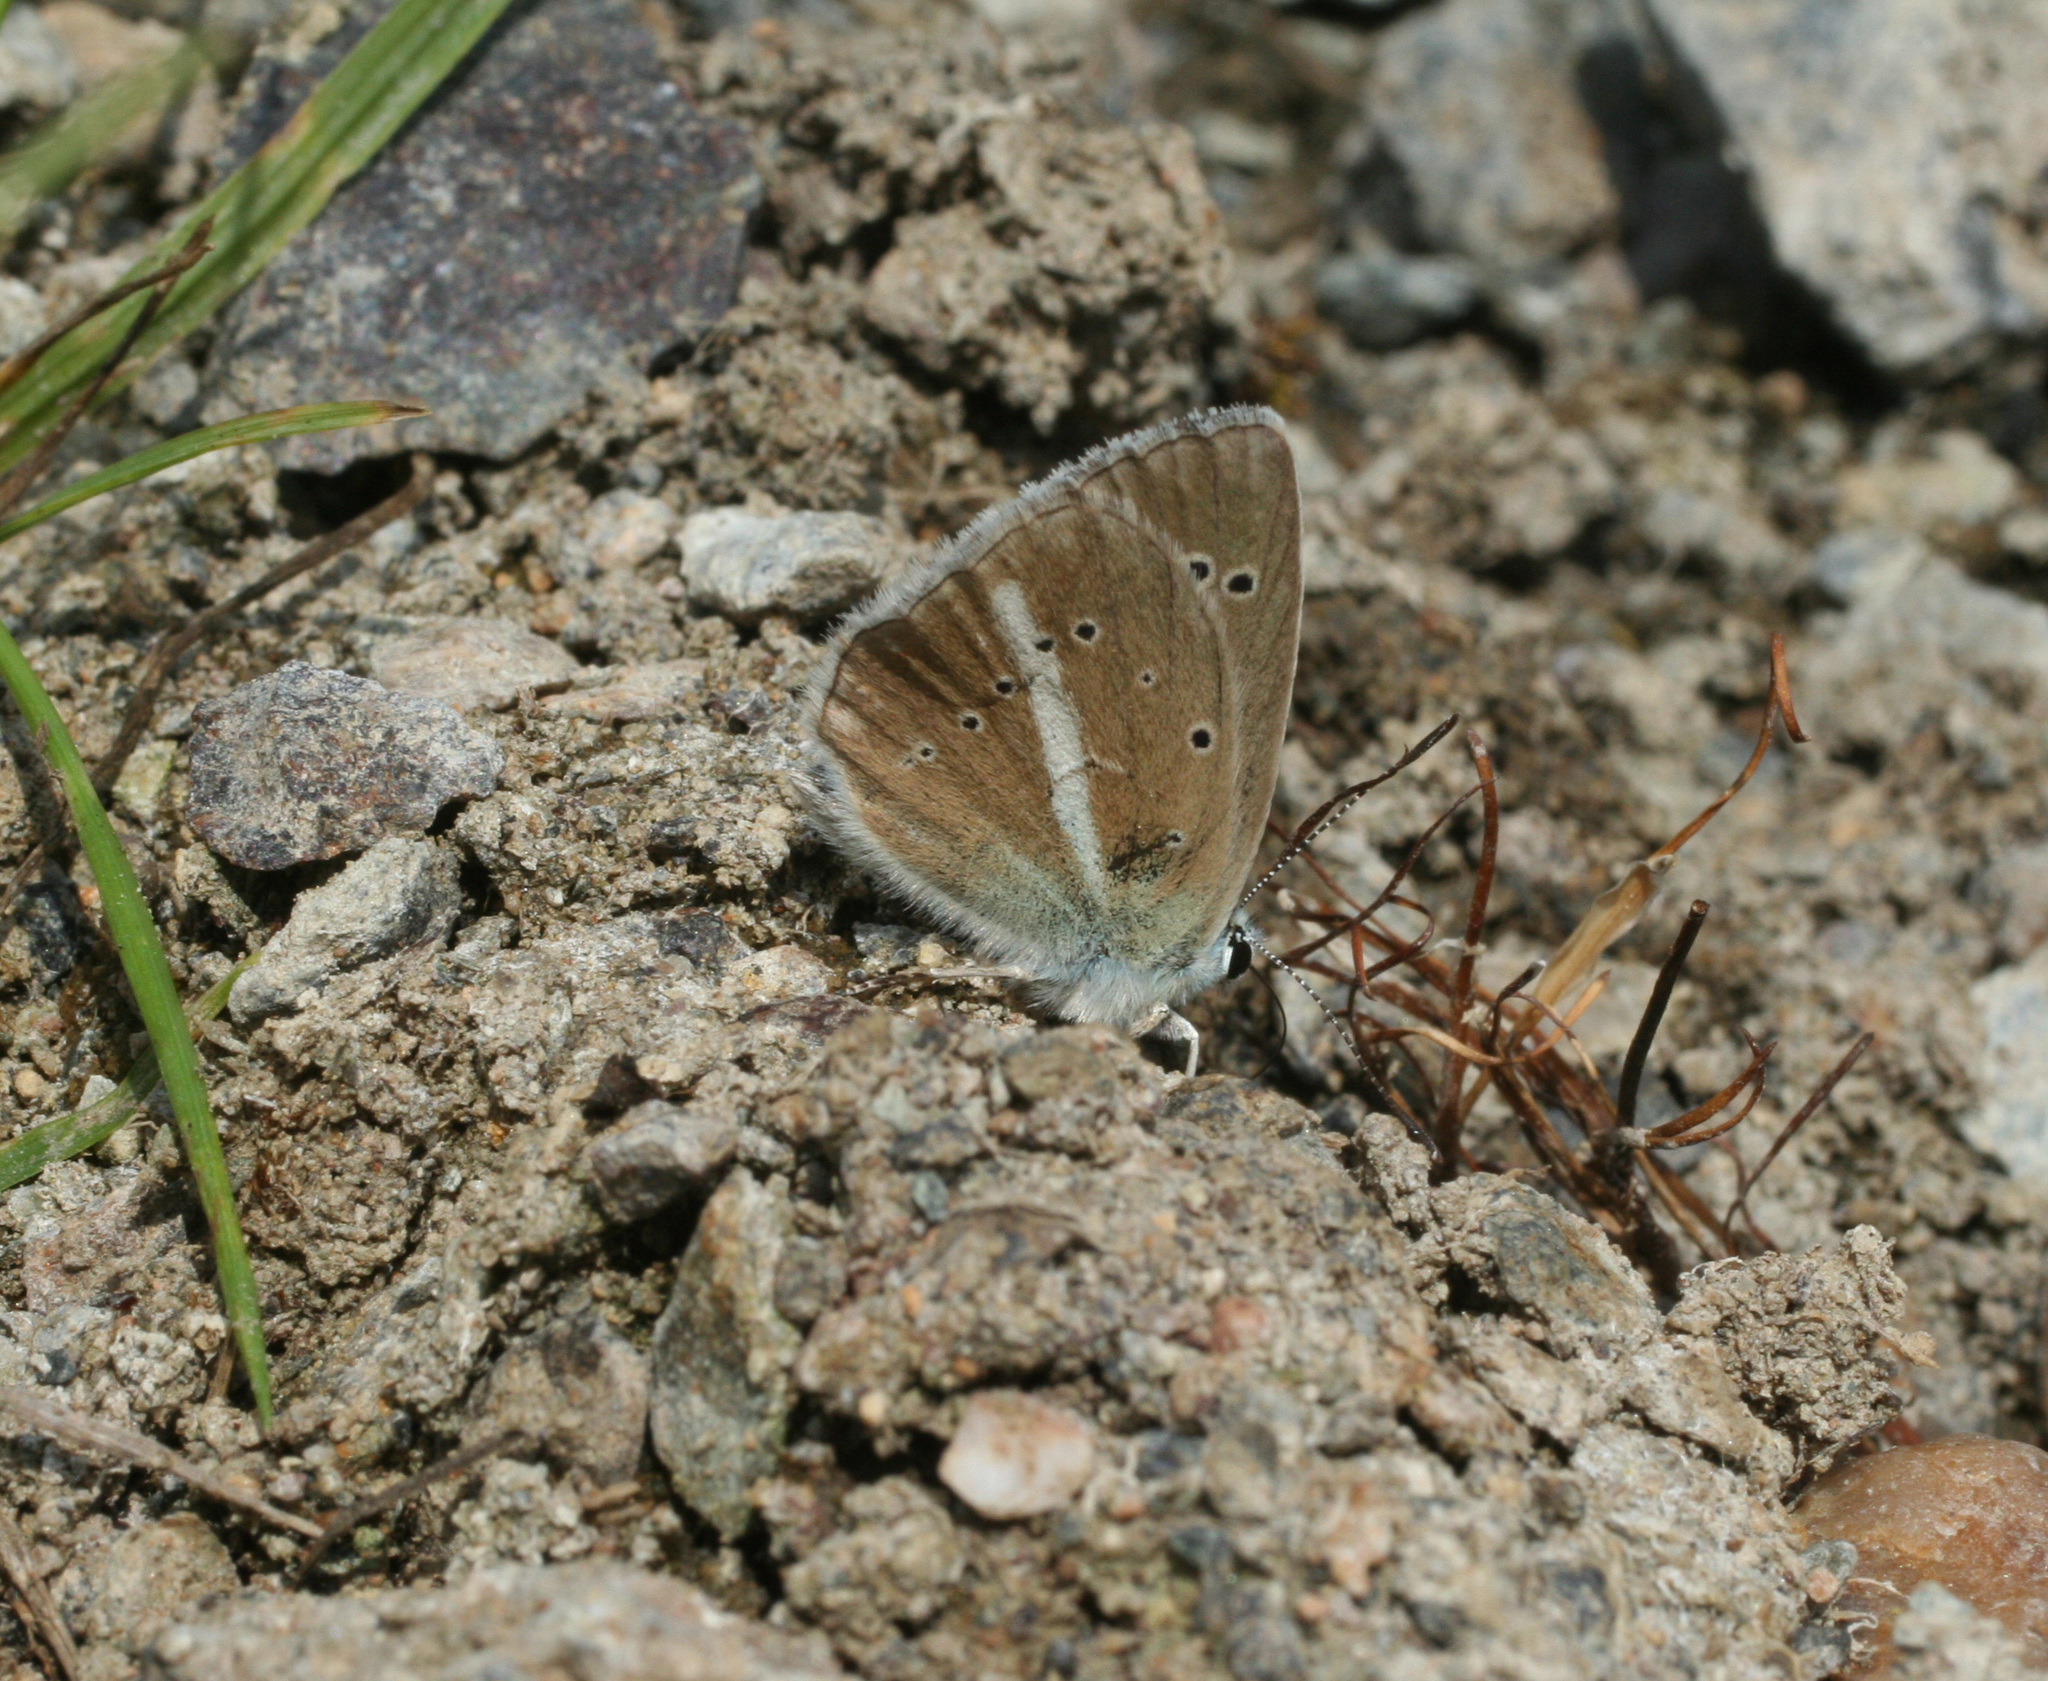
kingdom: Animalia
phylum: Arthropoda
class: Insecta
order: Lepidoptera
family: Lycaenidae
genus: Agrodiaetus
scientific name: Agrodiaetus damon
